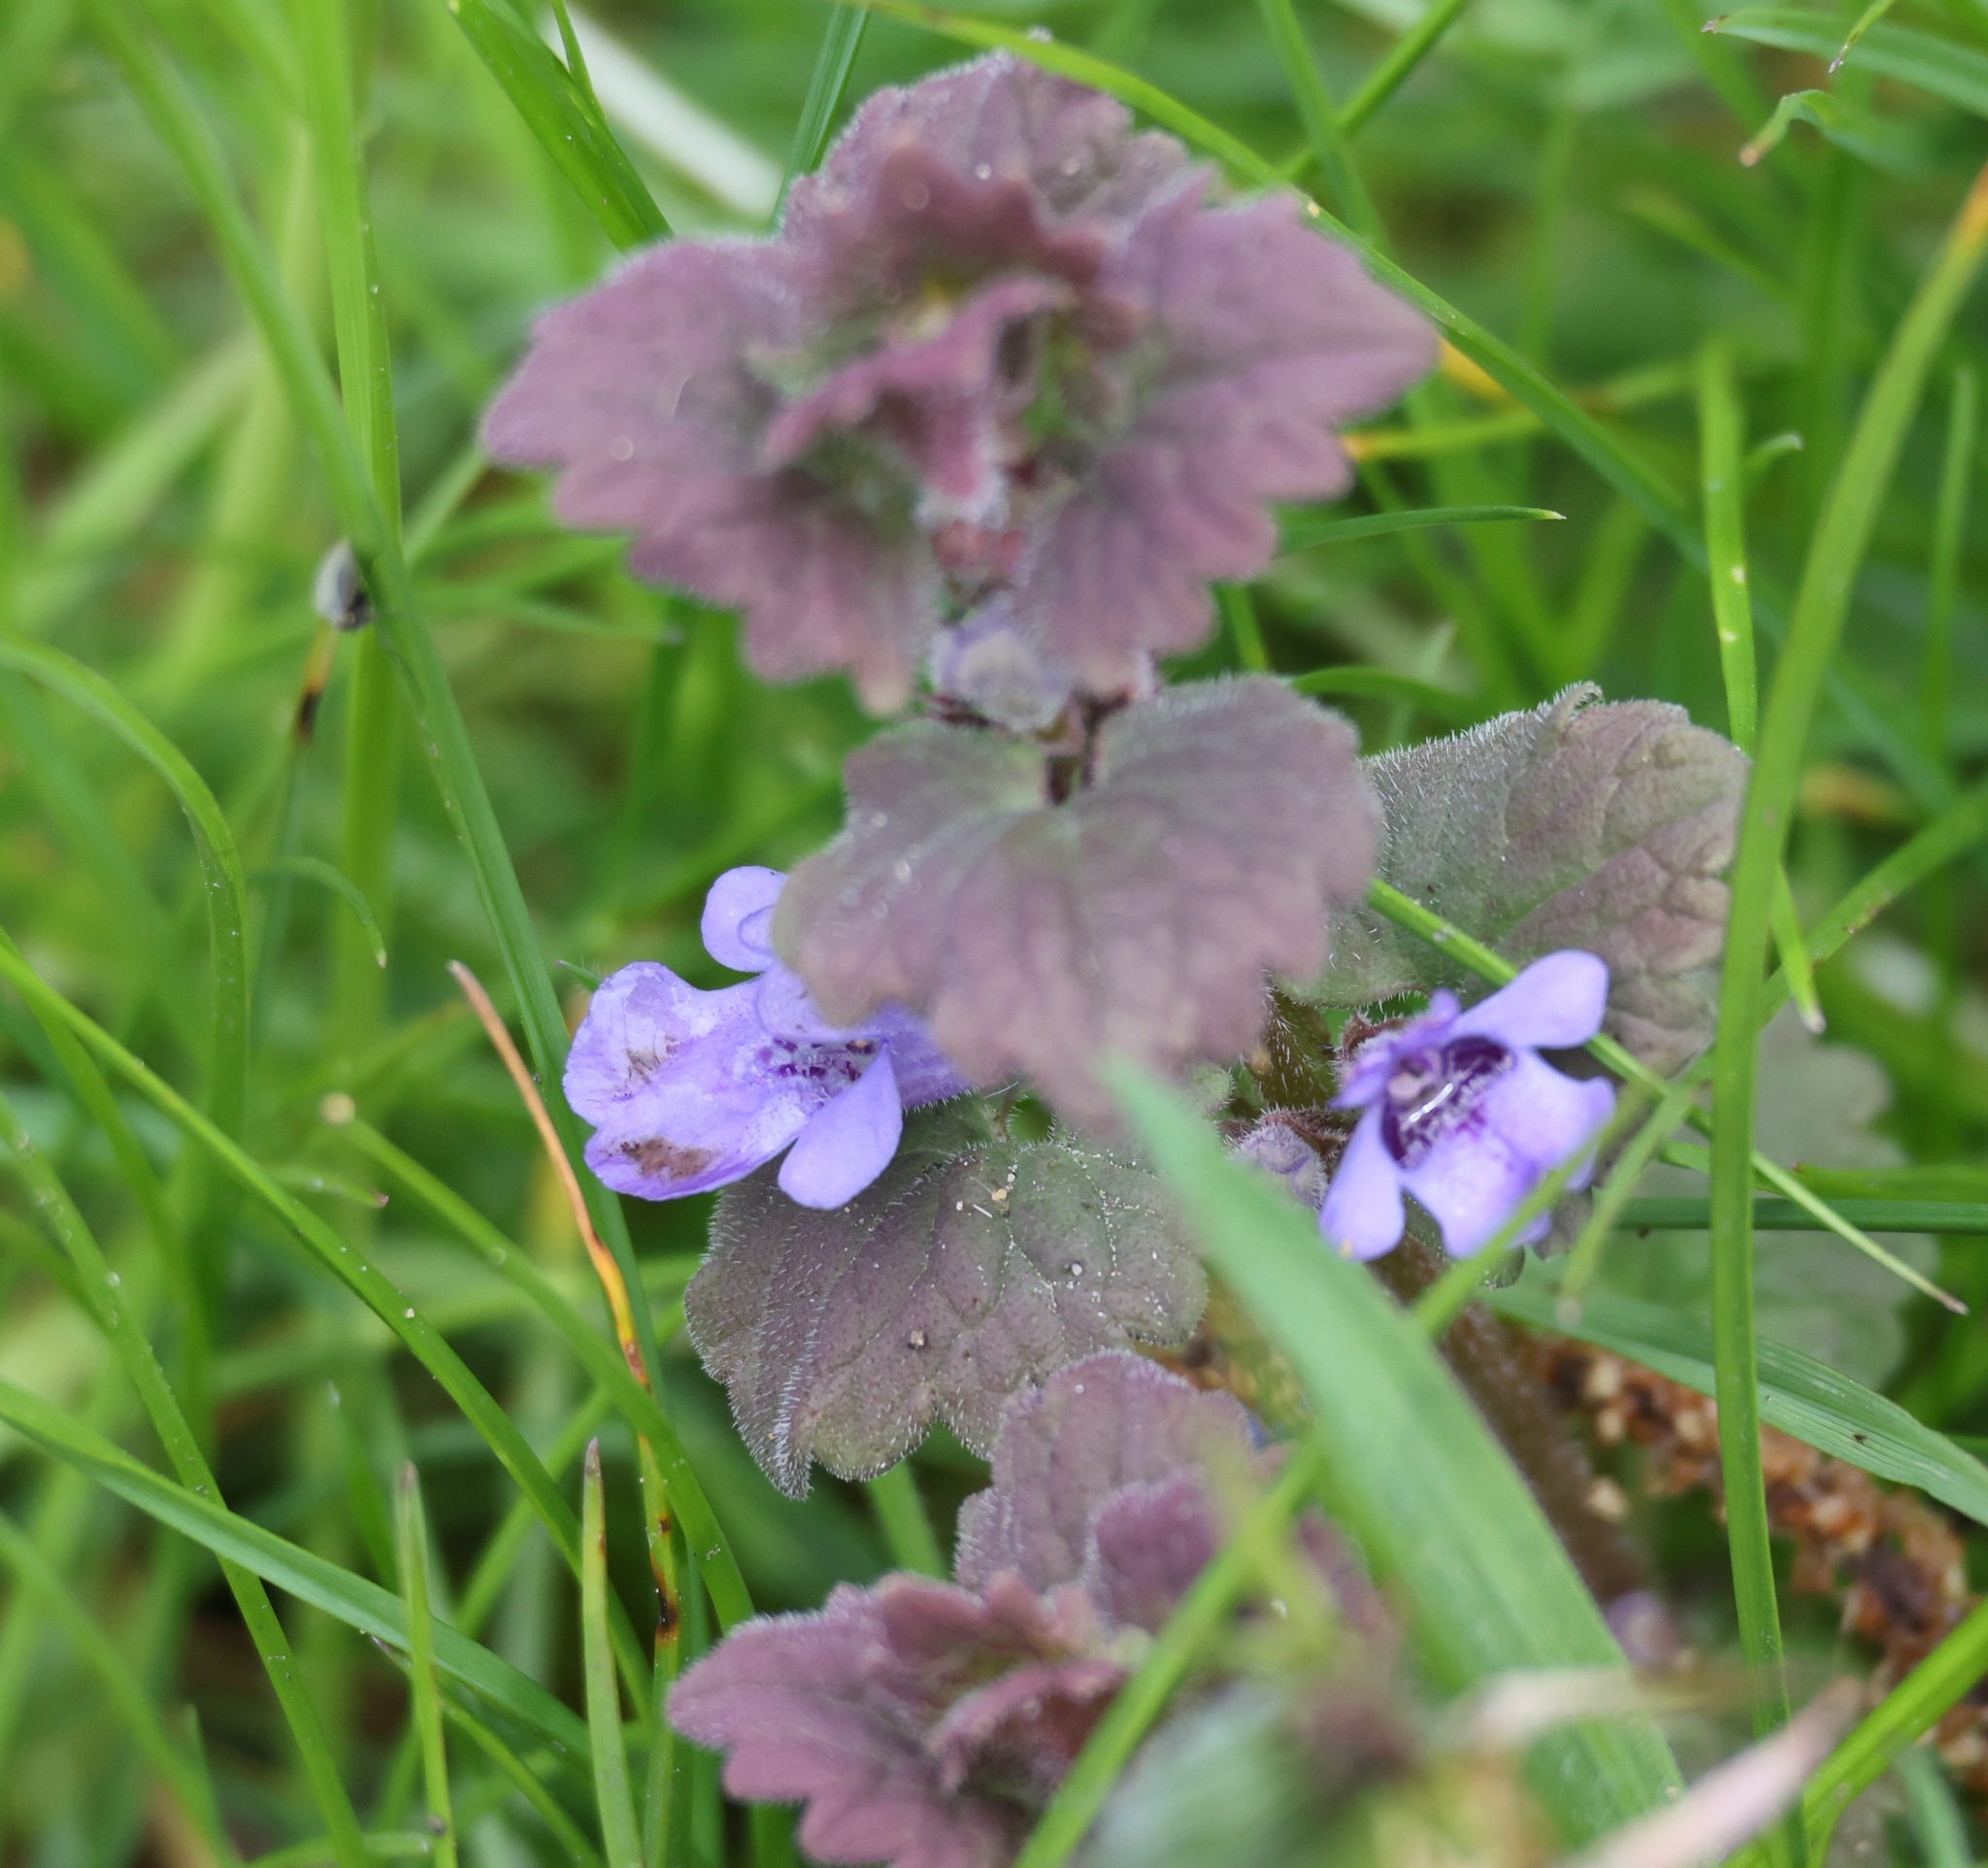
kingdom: Plantae
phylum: Tracheophyta
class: Magnoliopsida
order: Lamiales
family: Lamiaceae
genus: Glechoma
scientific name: Glechoma hederacea
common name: Ground ivy
